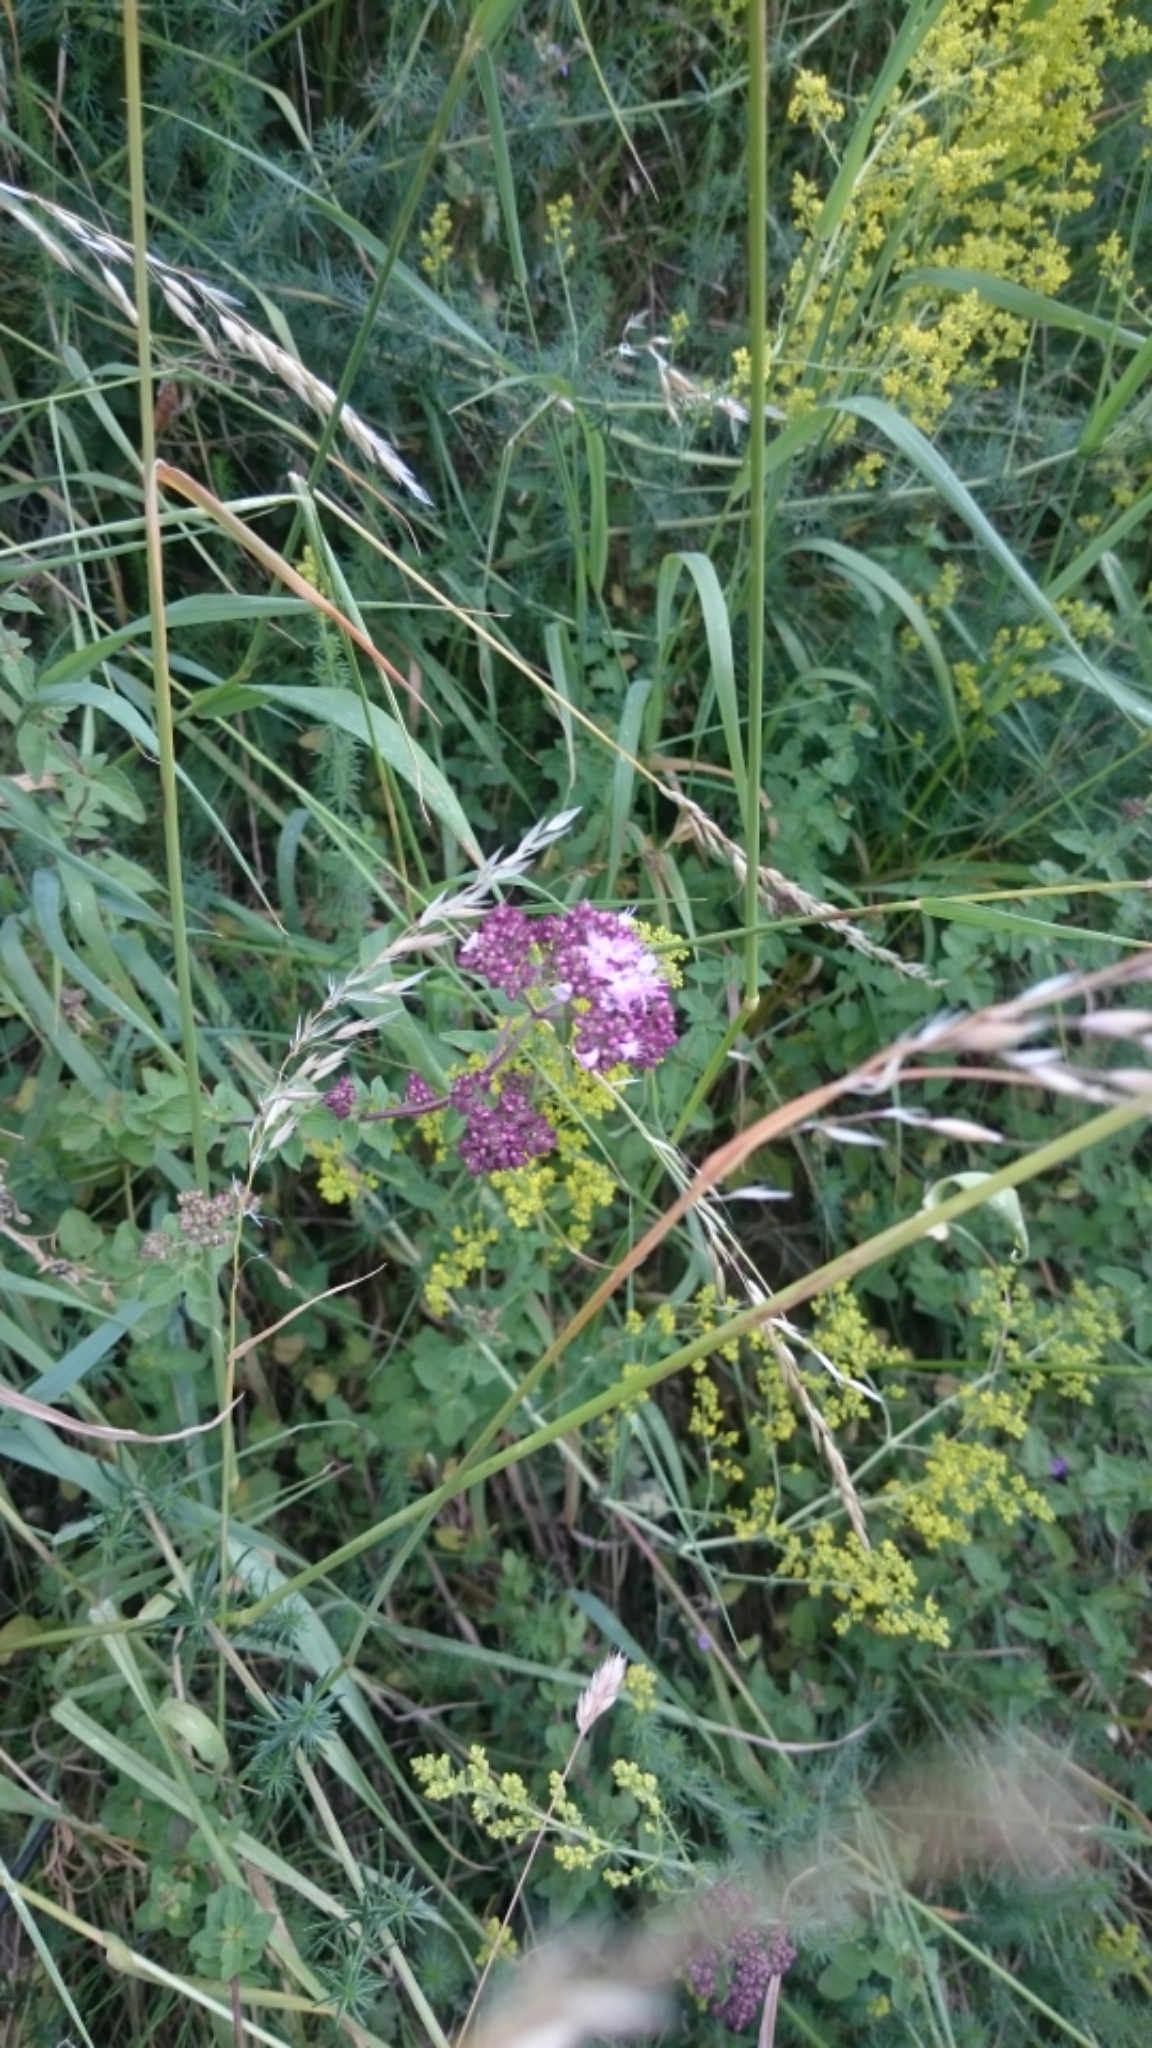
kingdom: Plantae
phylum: Tracheophyta
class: Magnoliopsida
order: Lamiales
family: Lamiaceae
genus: Origanum
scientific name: Origanum vulgare
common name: Wild marjoram
